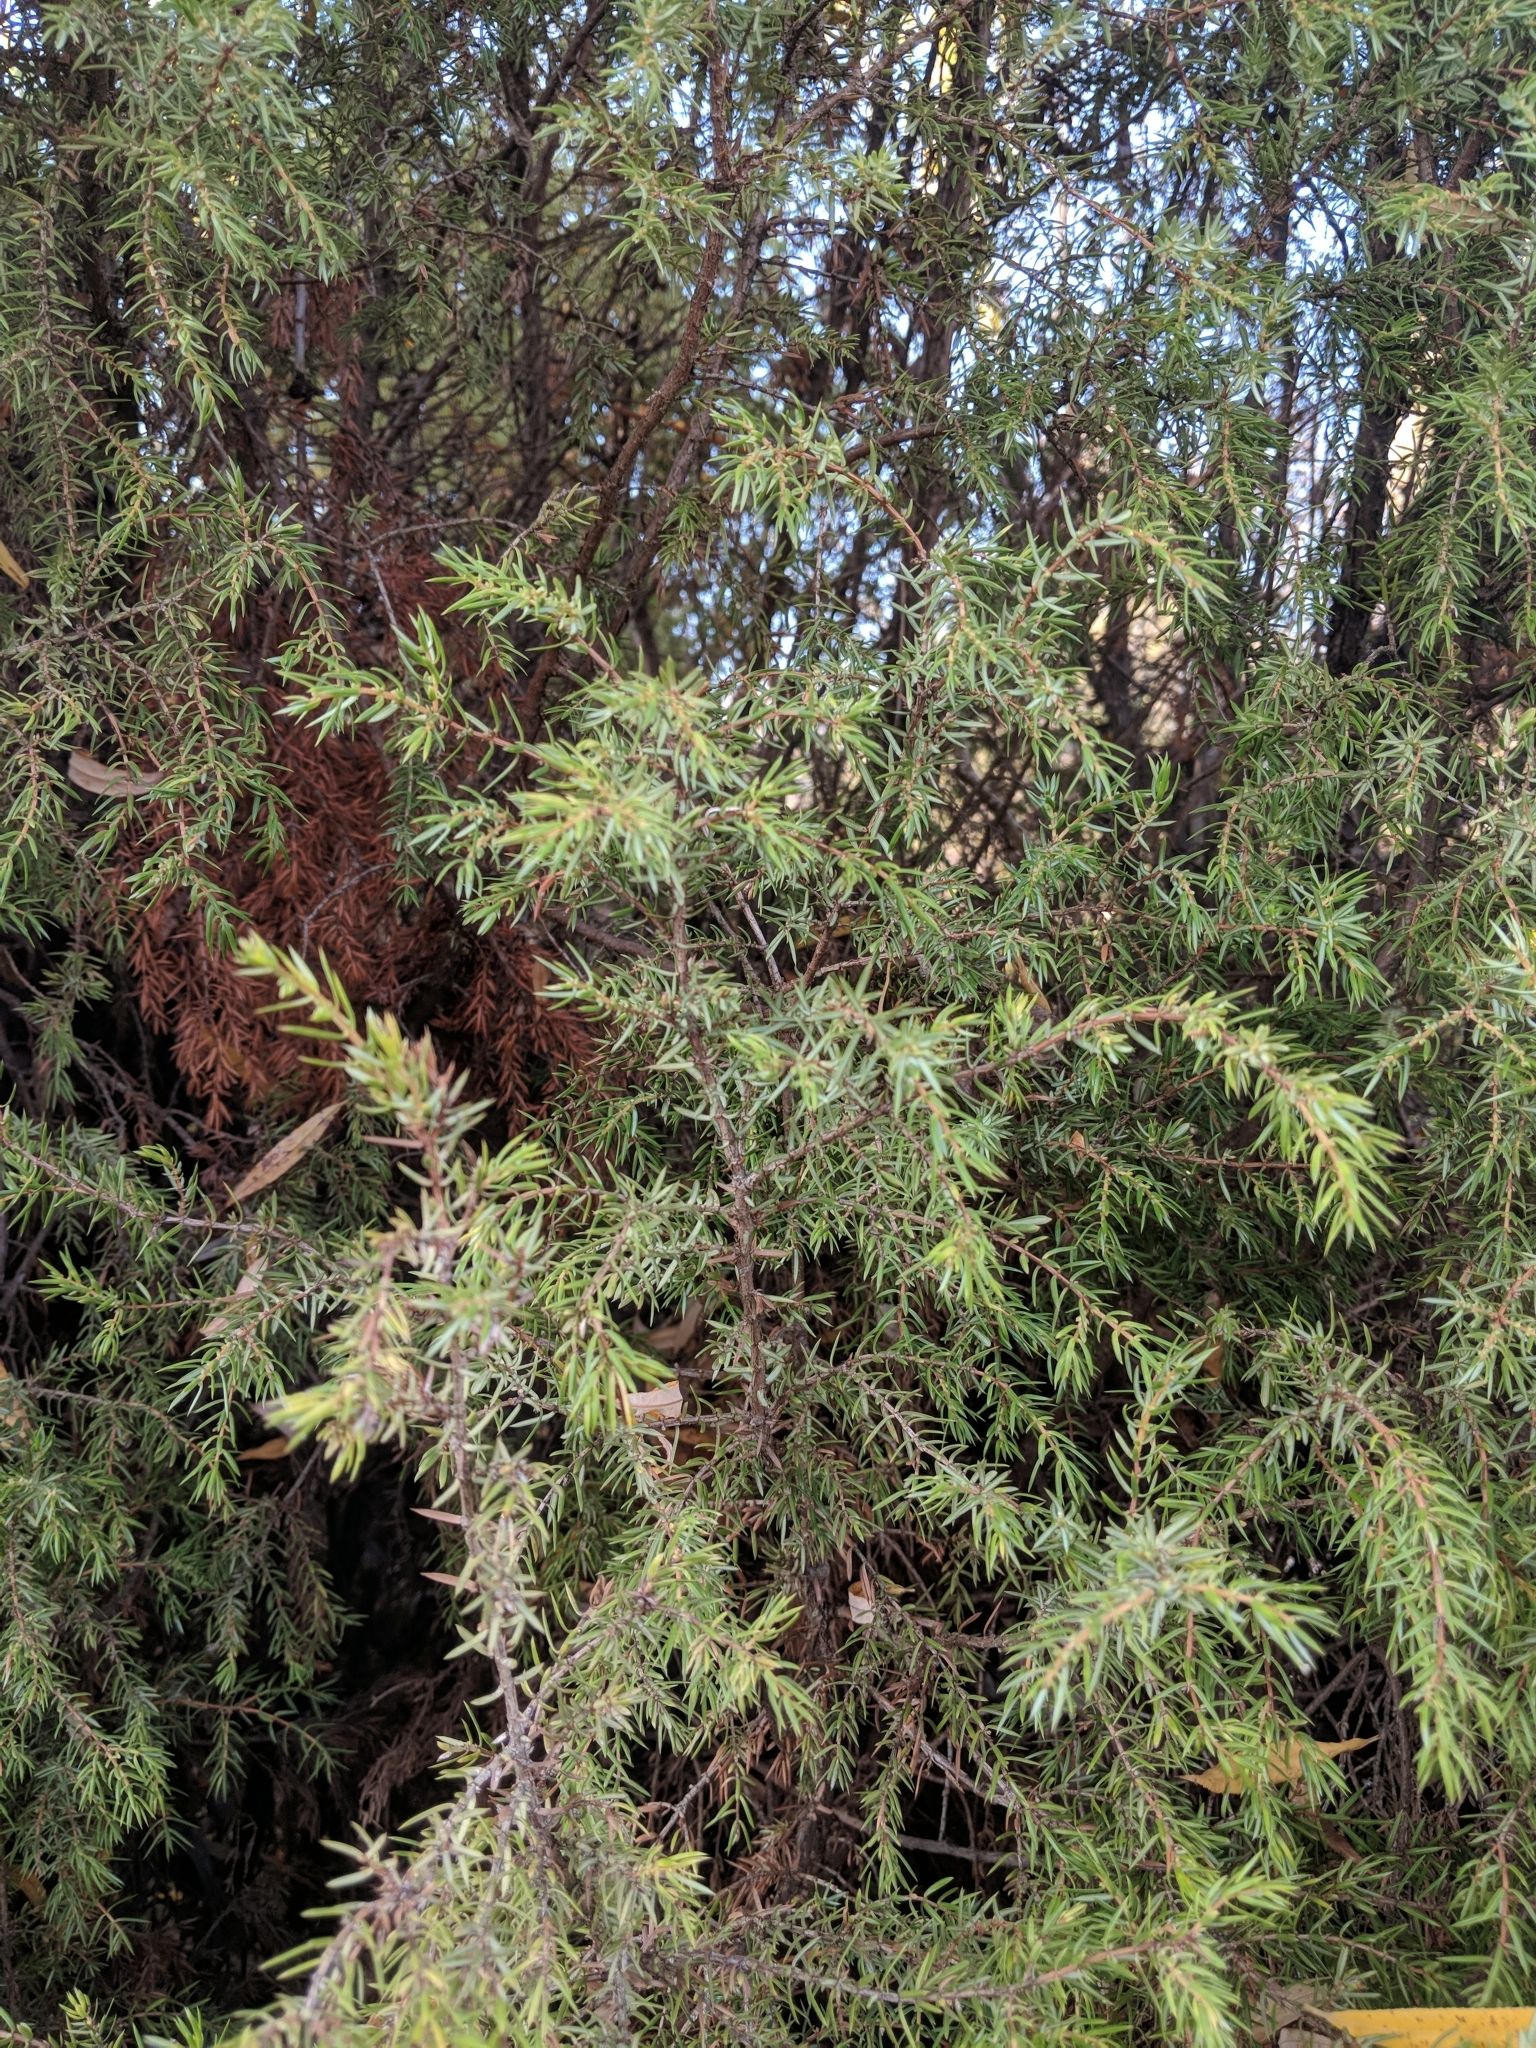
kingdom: Plantae
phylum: Tracheophyta
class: Pinopsida
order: Pinales
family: Cupressaceae
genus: Juniperus
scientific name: Juniperus communis
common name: Common juniper
